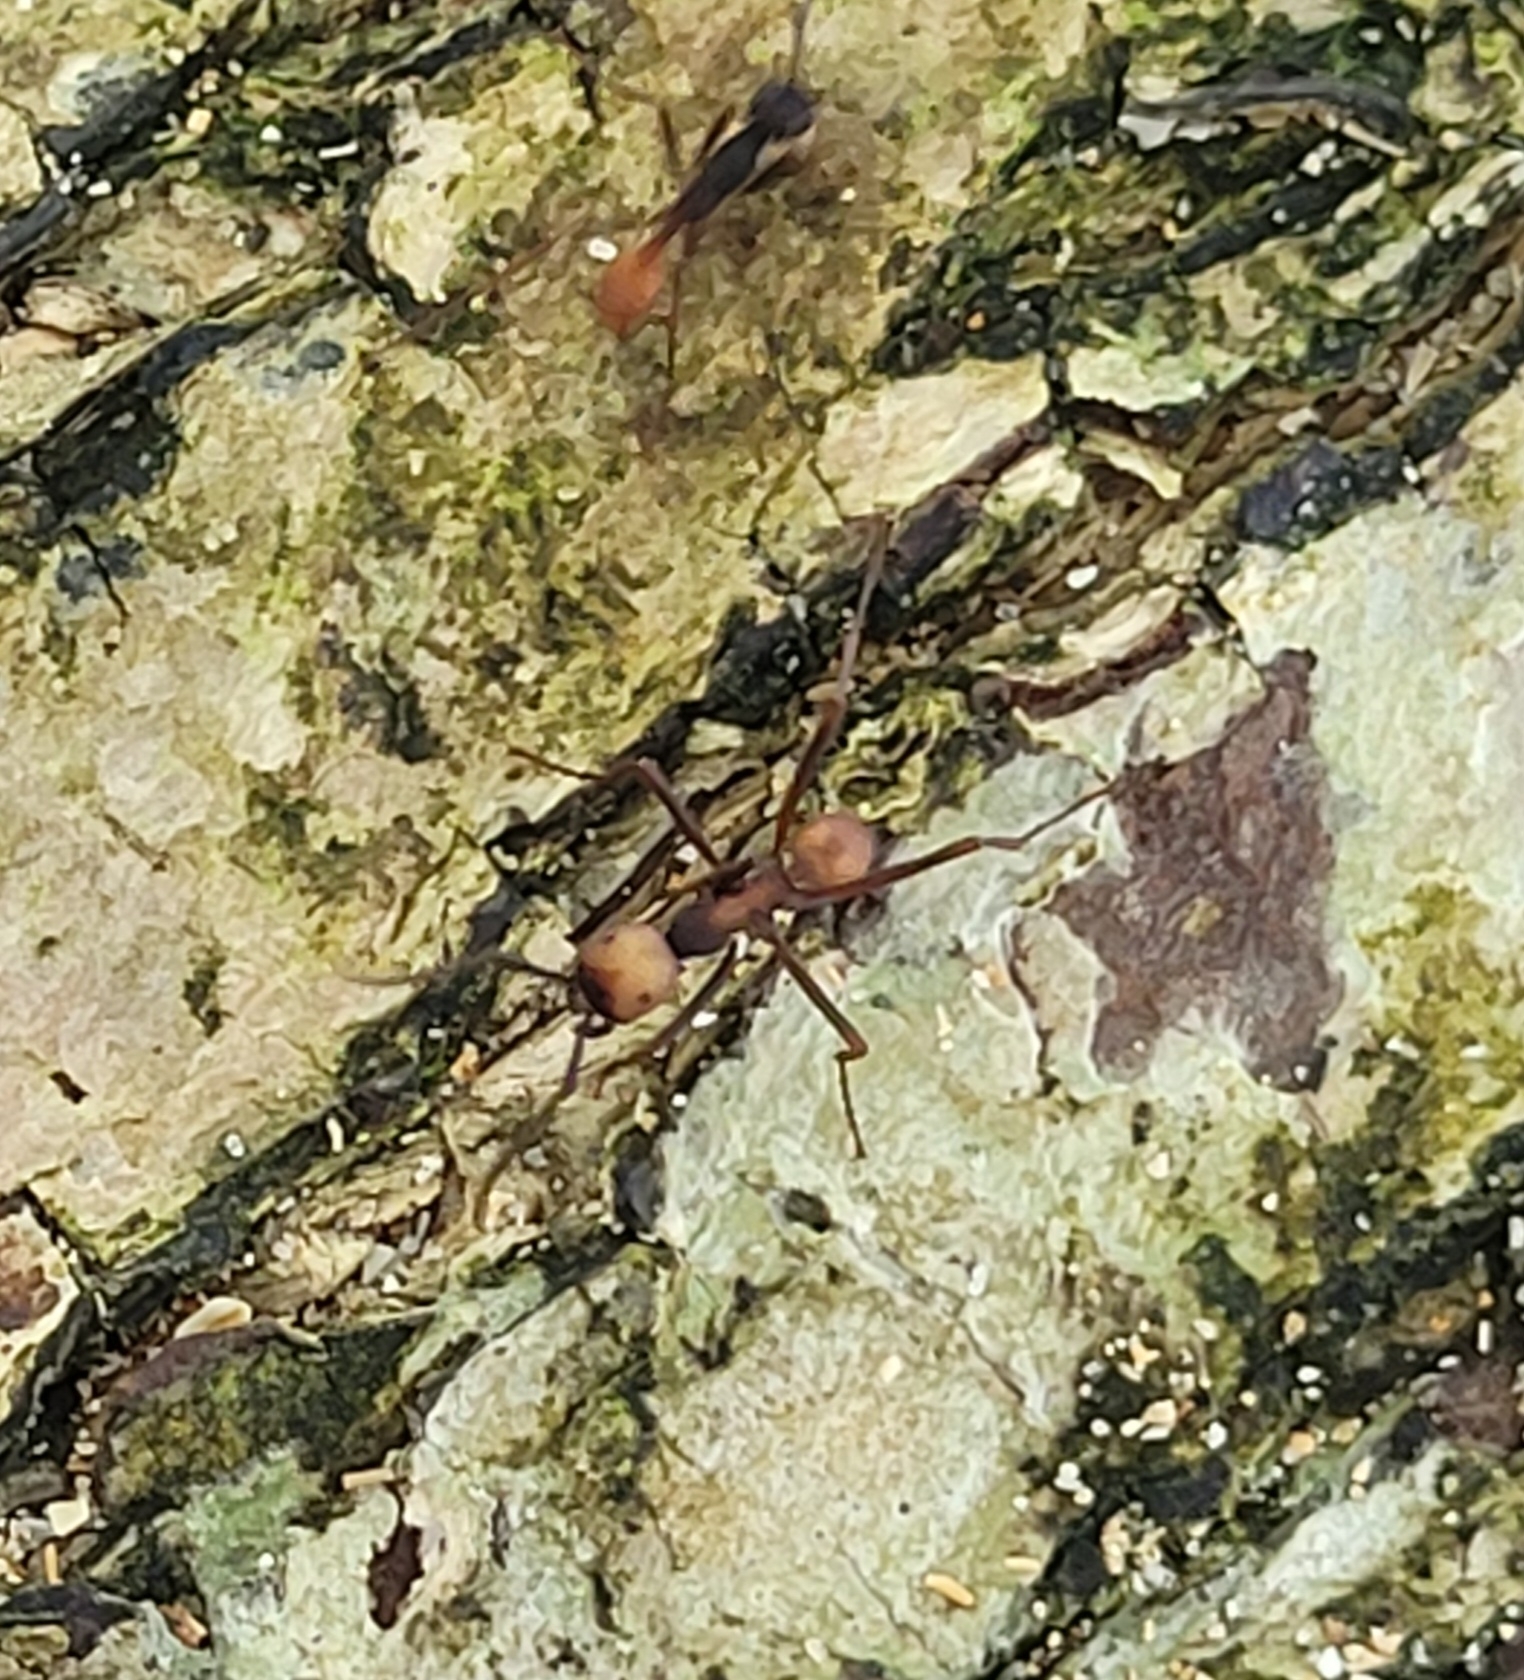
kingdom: Animalia
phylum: Arthropoda
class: Insecta
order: Hymenoptera
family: Formicidae
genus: Eciton
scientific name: Eciton burchellii
